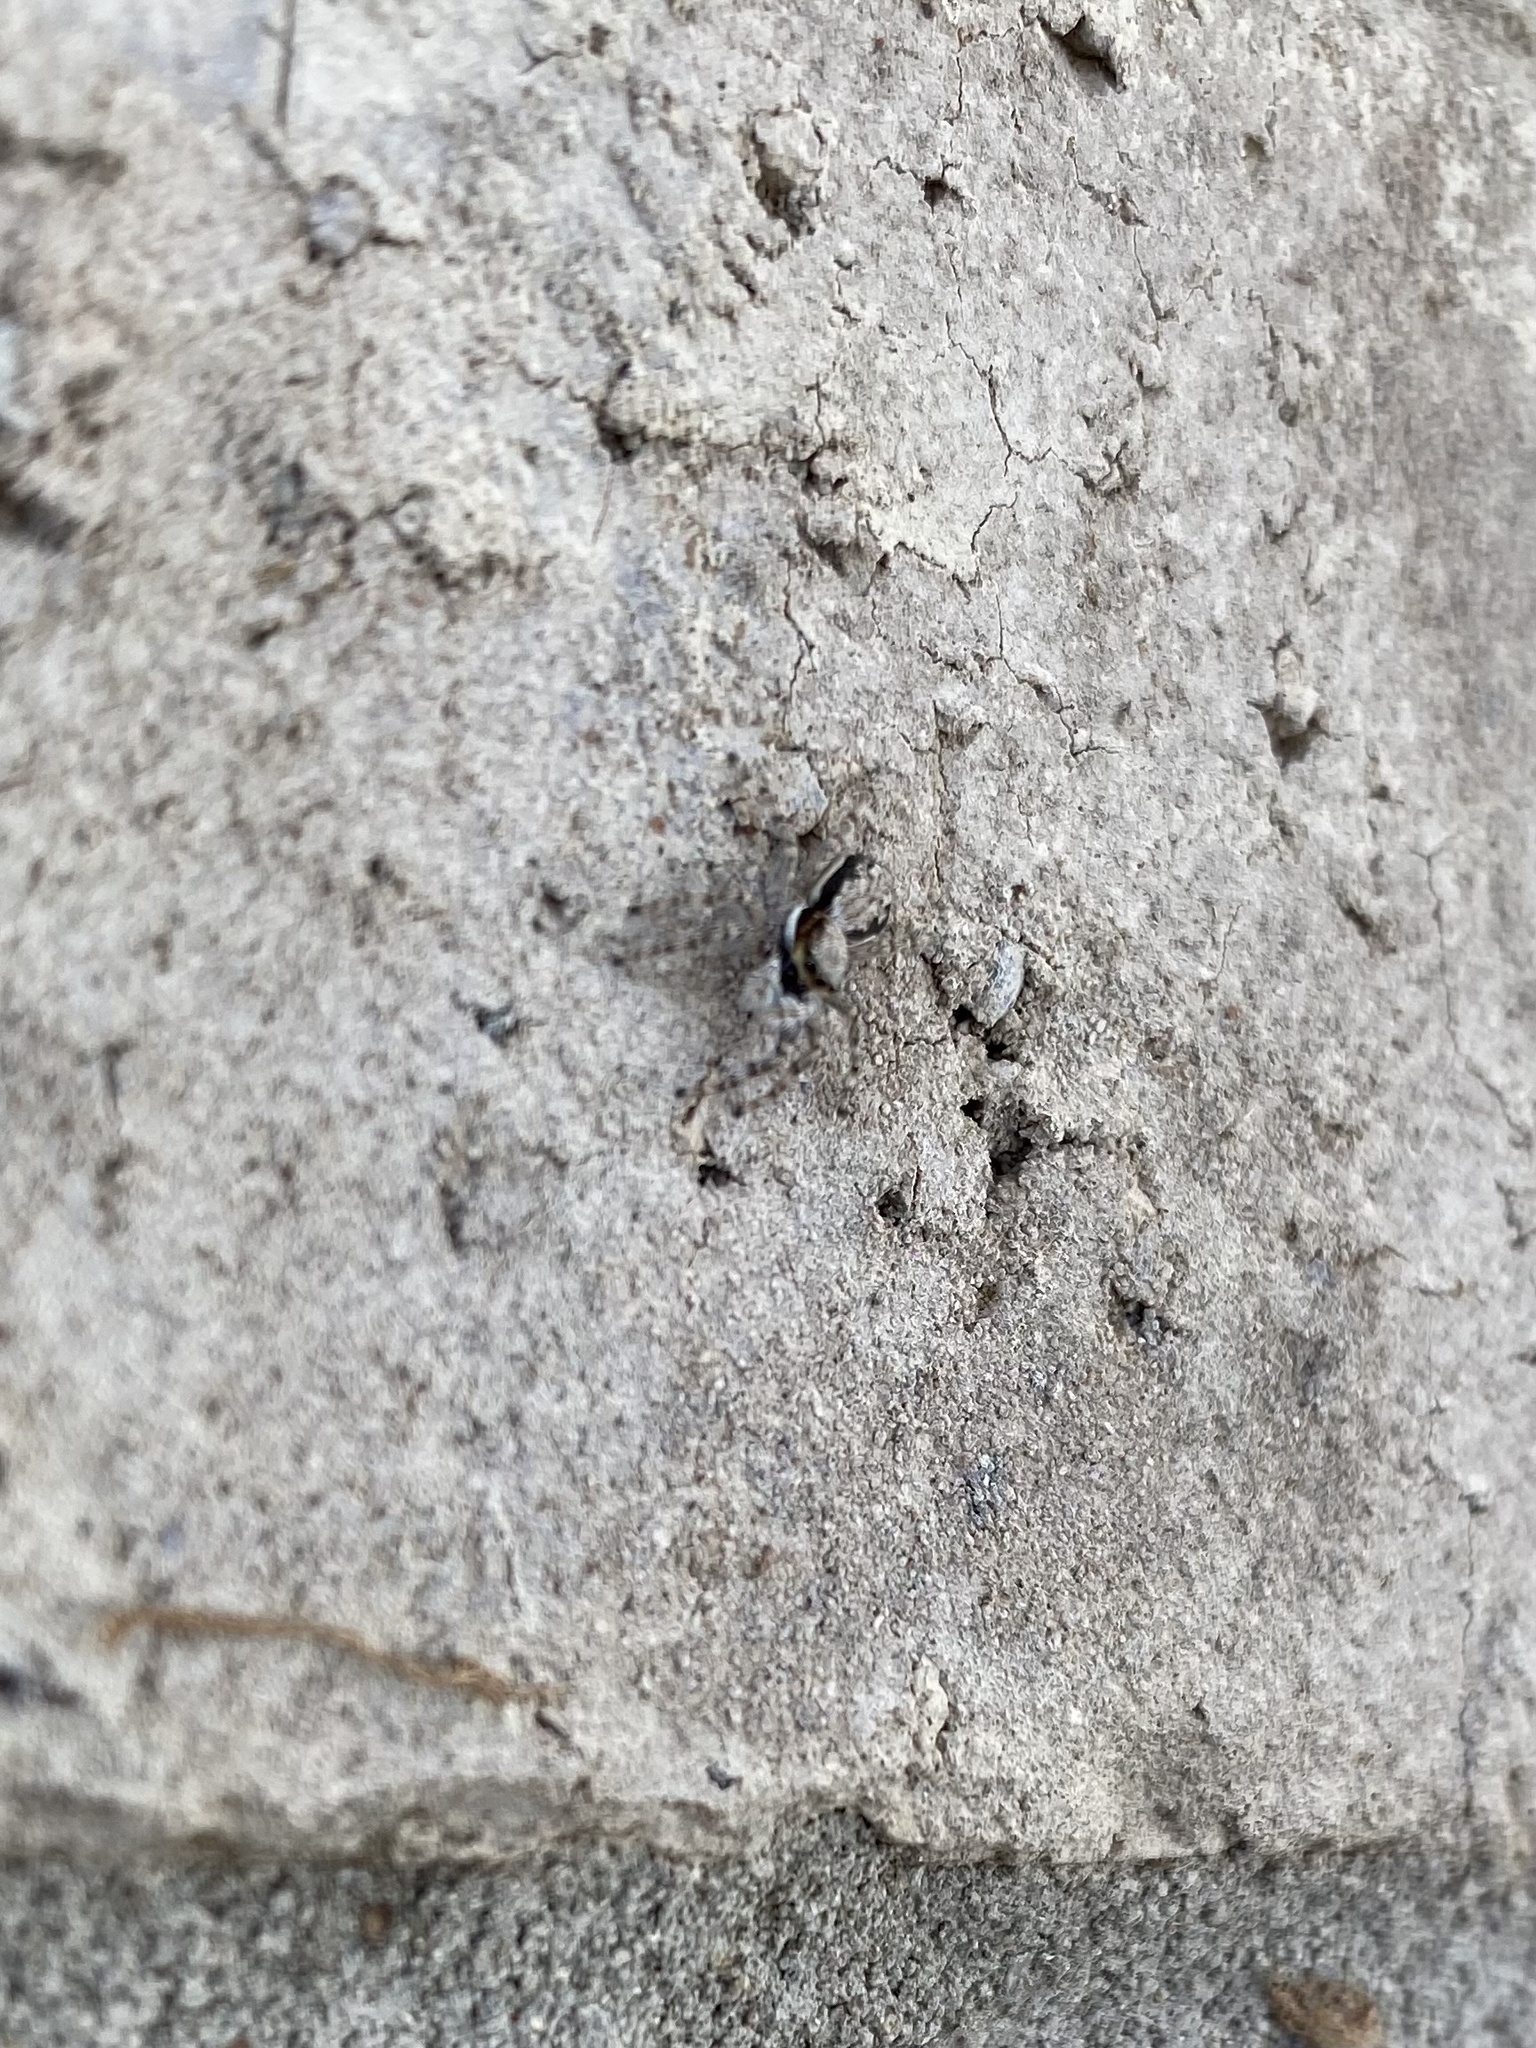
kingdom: Animalia
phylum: Arthropoda
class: Arachnida
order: Araneae
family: Salticidae
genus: Menemerus
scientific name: Menemerus bivittatus
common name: Gray wall jumper
